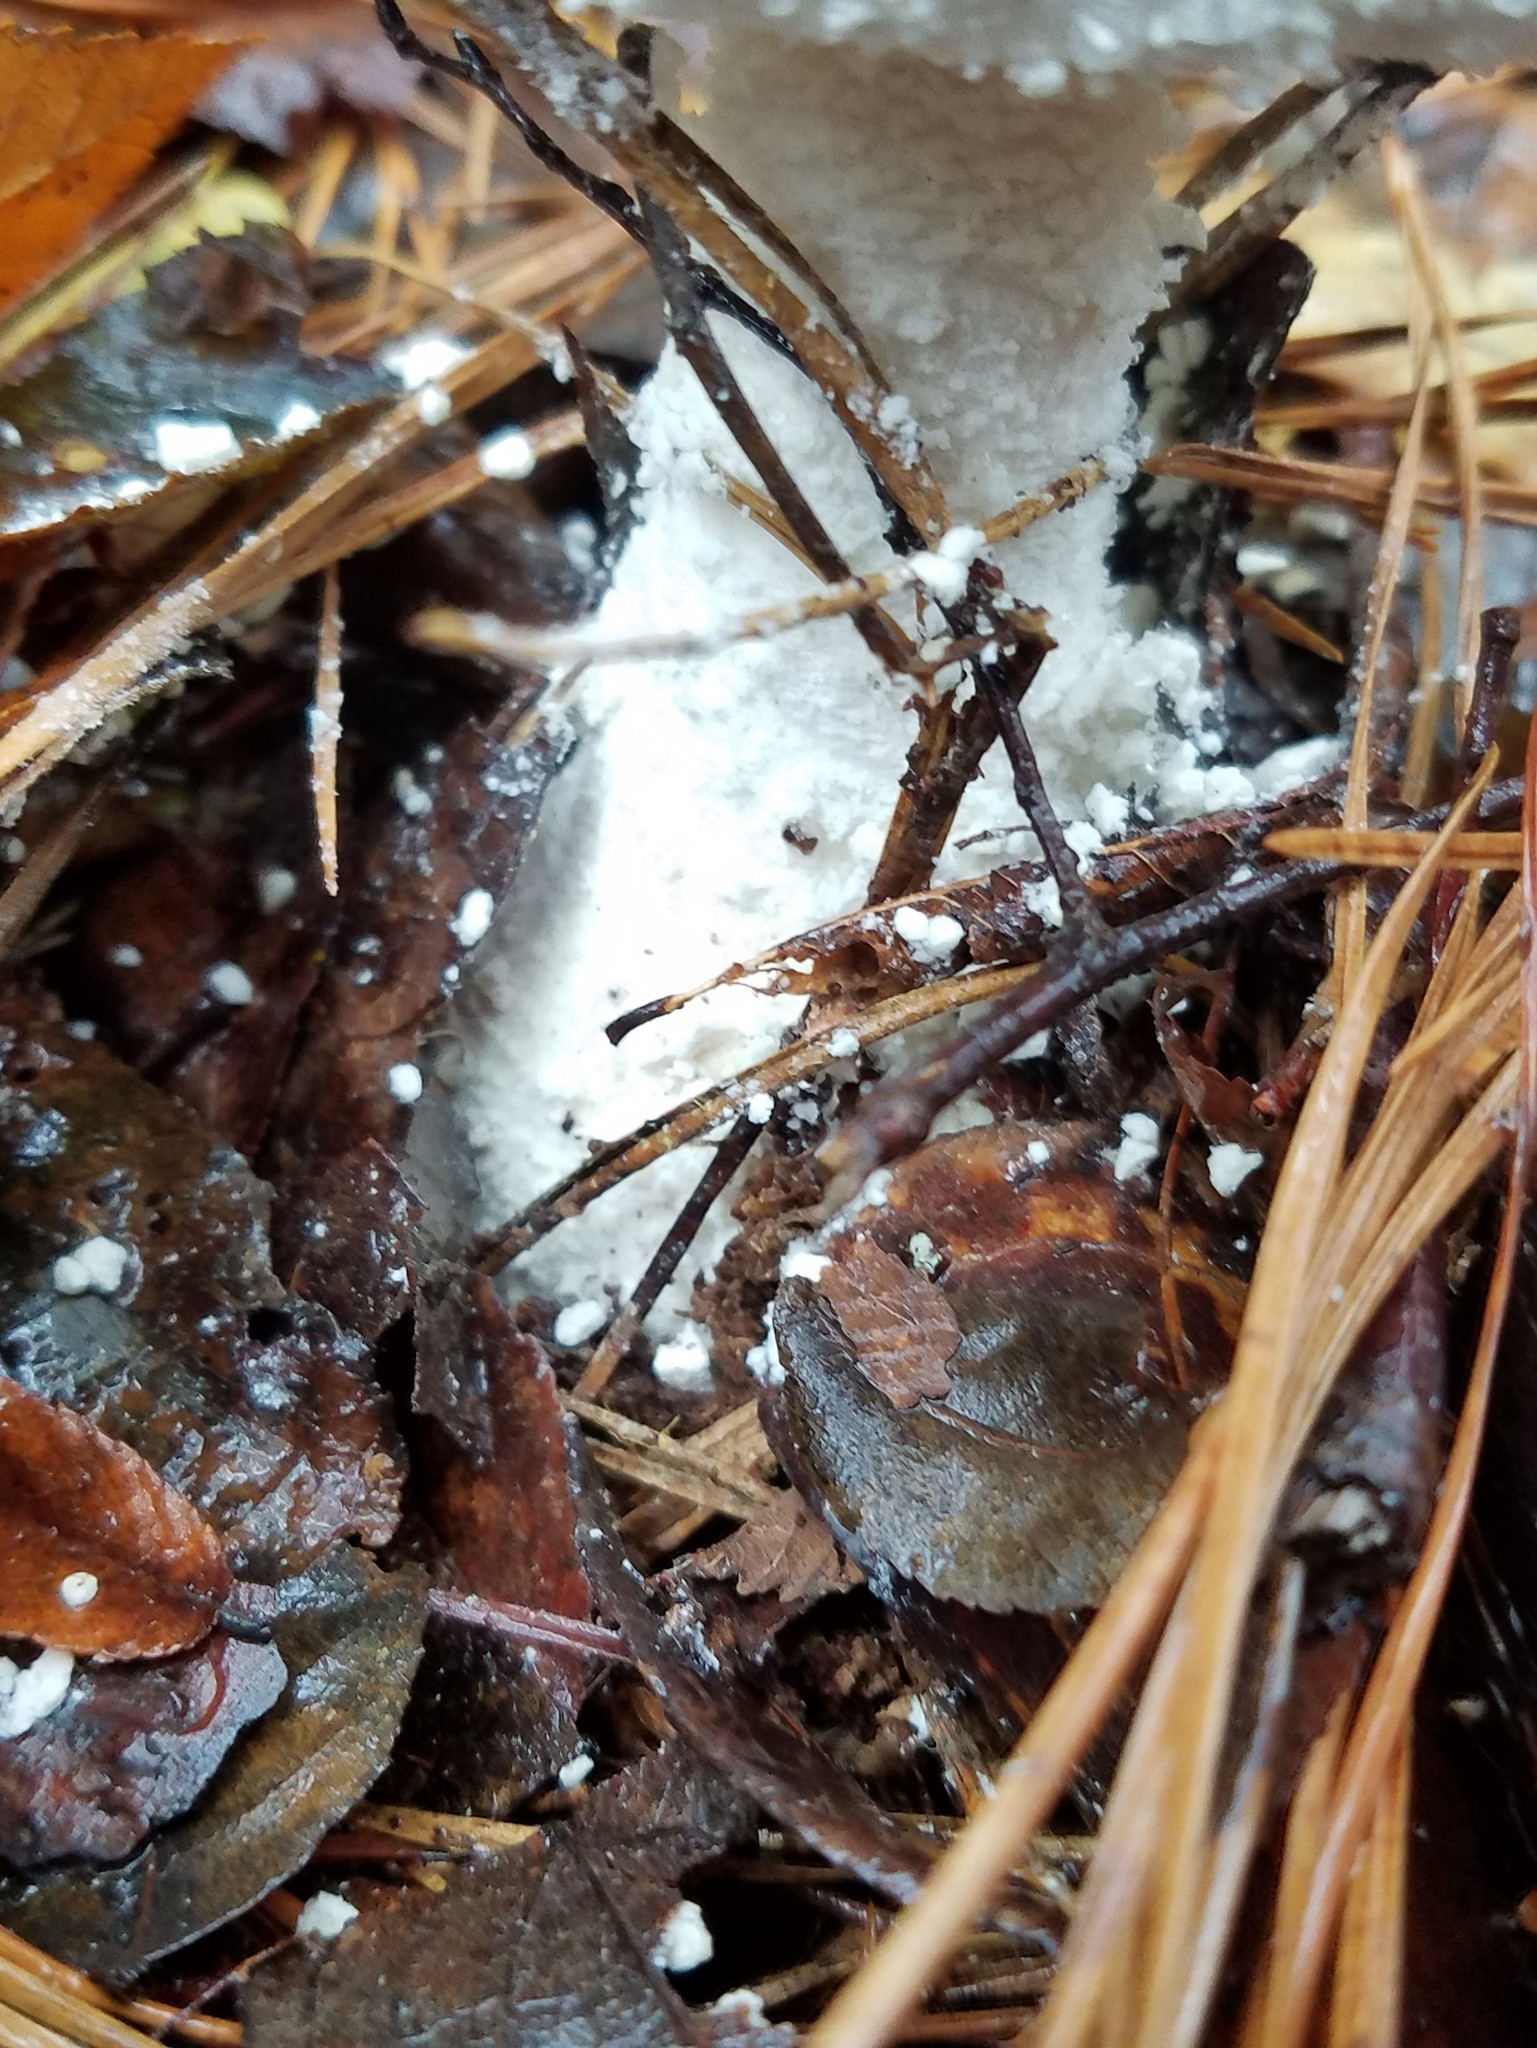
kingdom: Fungi
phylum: Basidiomycota
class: Agaricomycetes
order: Agaricales
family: Amanitaceae
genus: Amanita
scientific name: Amanita polypyramis
